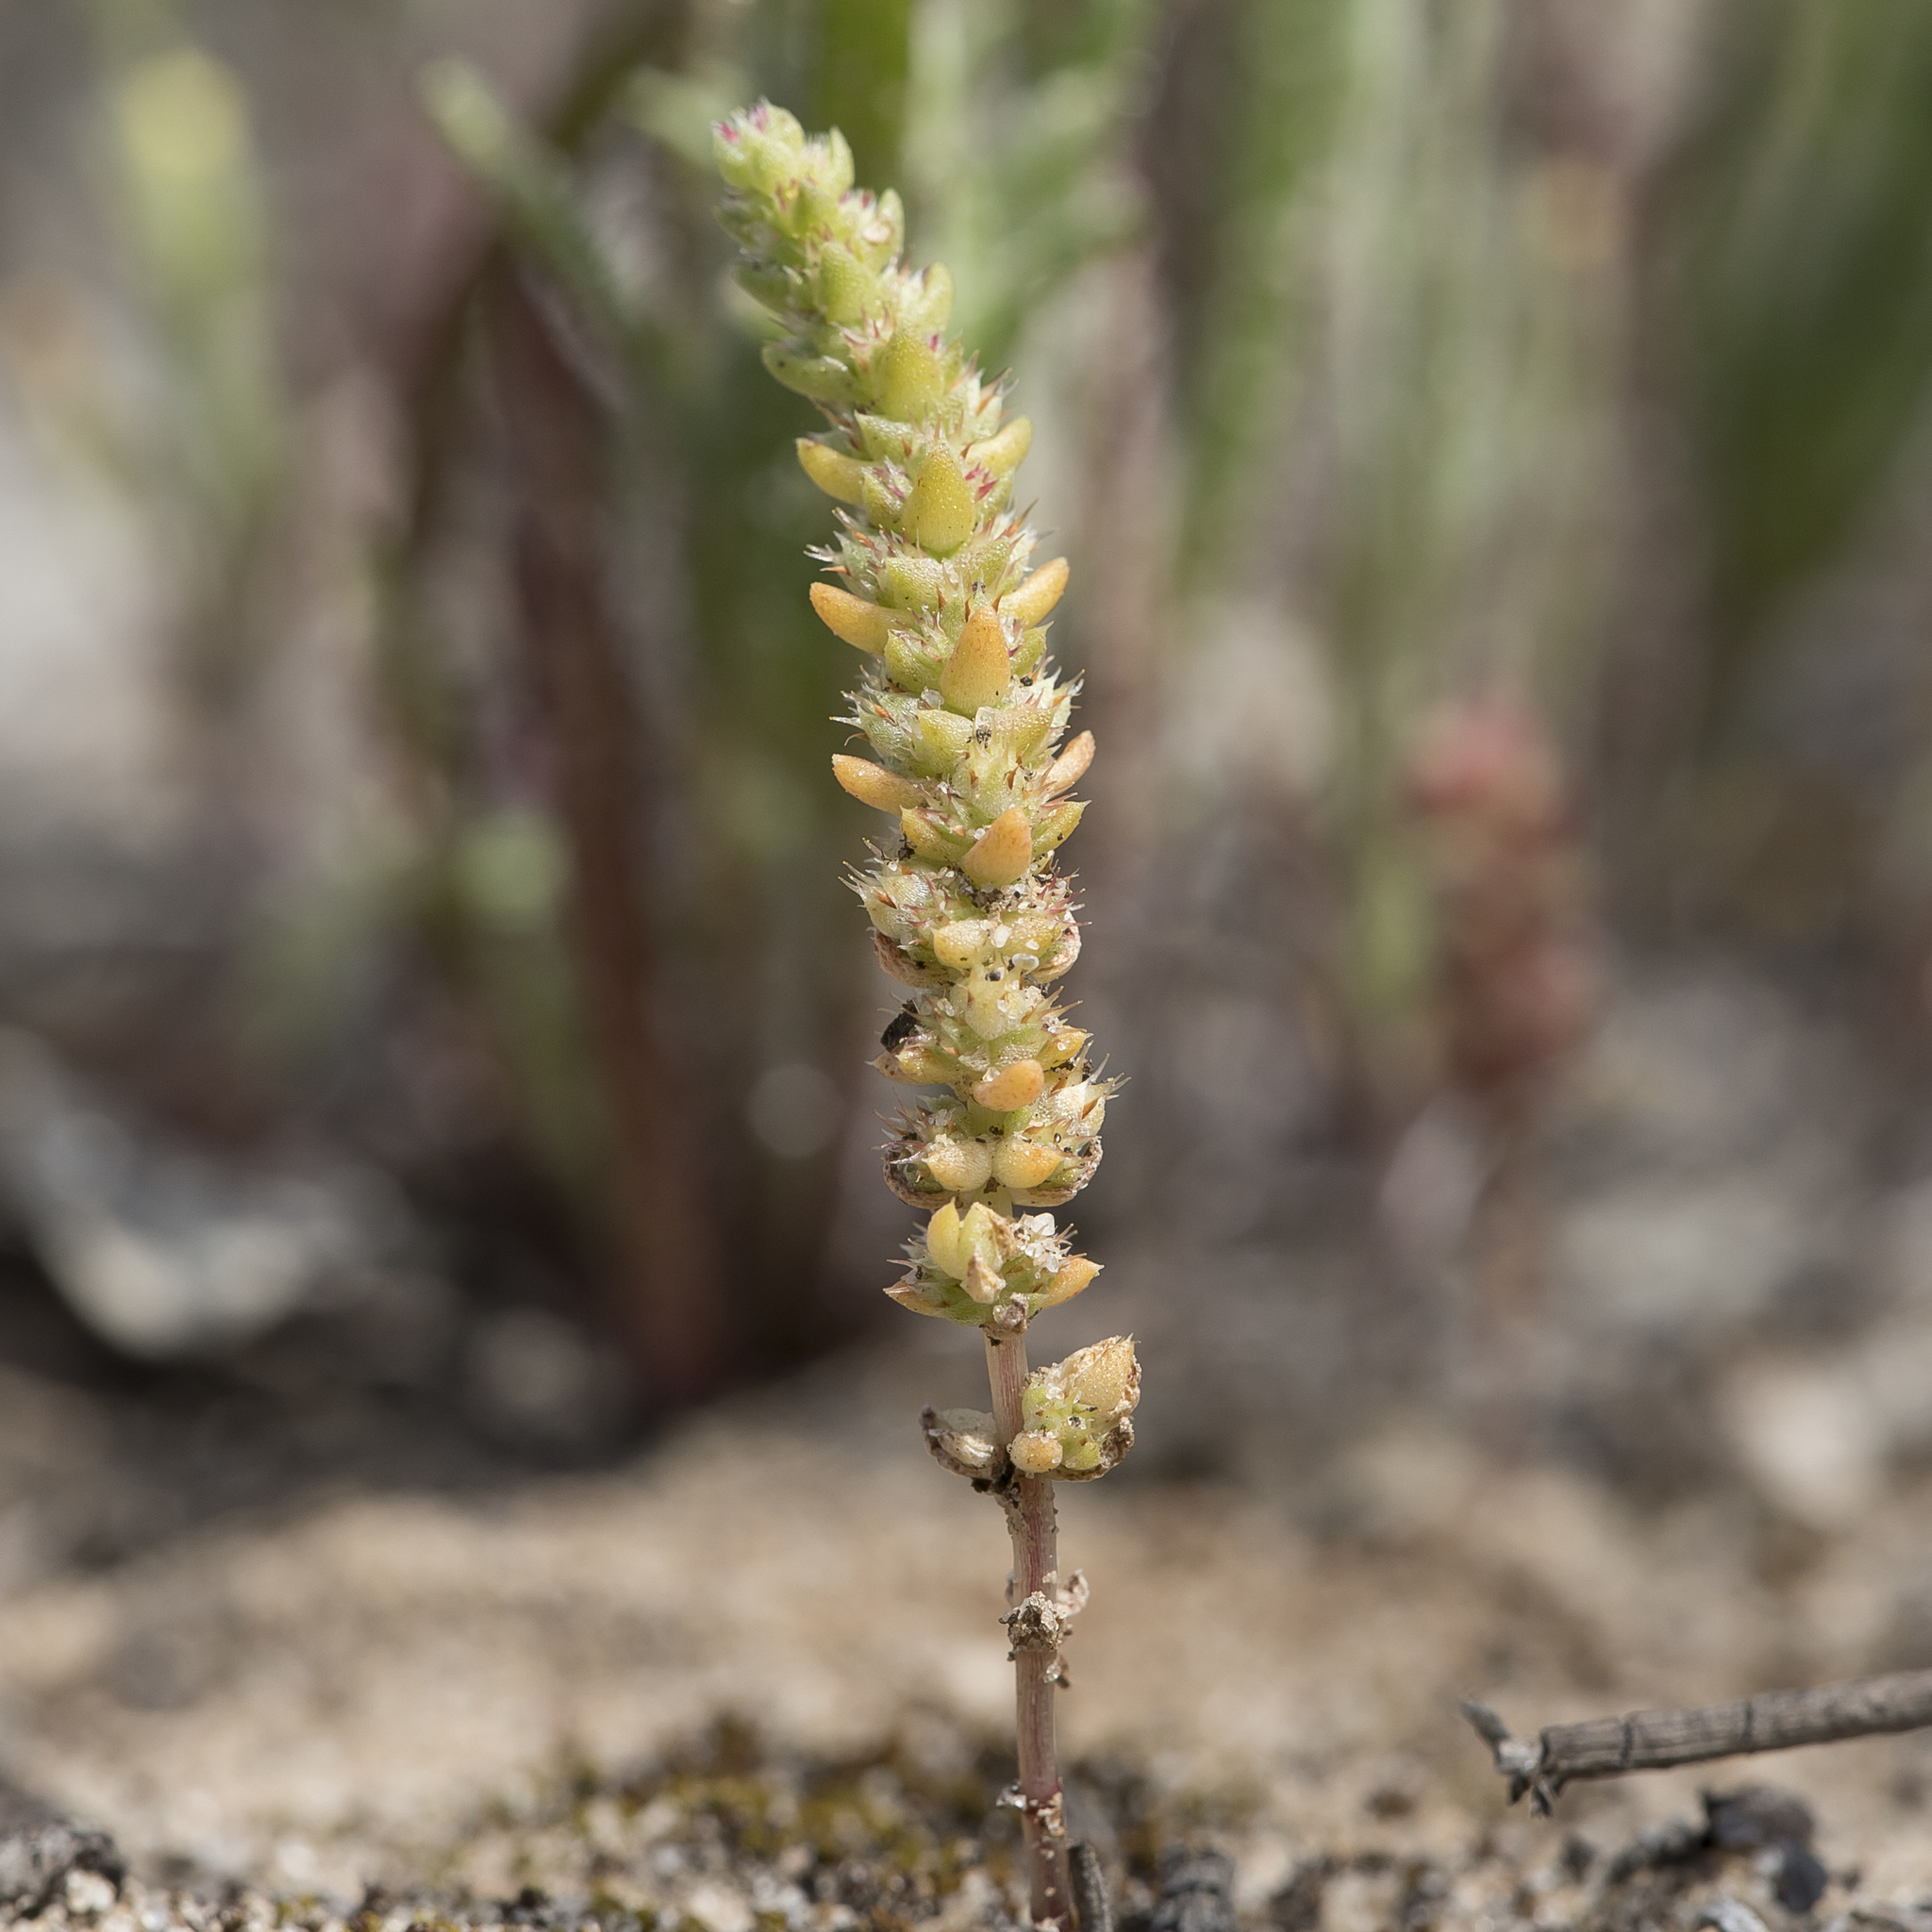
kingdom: Plantae
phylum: Tracheophyta
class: Magnoliopsida
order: Saxifragales
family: Crassulaceae
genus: Crassula
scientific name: Crassula colorata
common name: Dense pigmyweed
